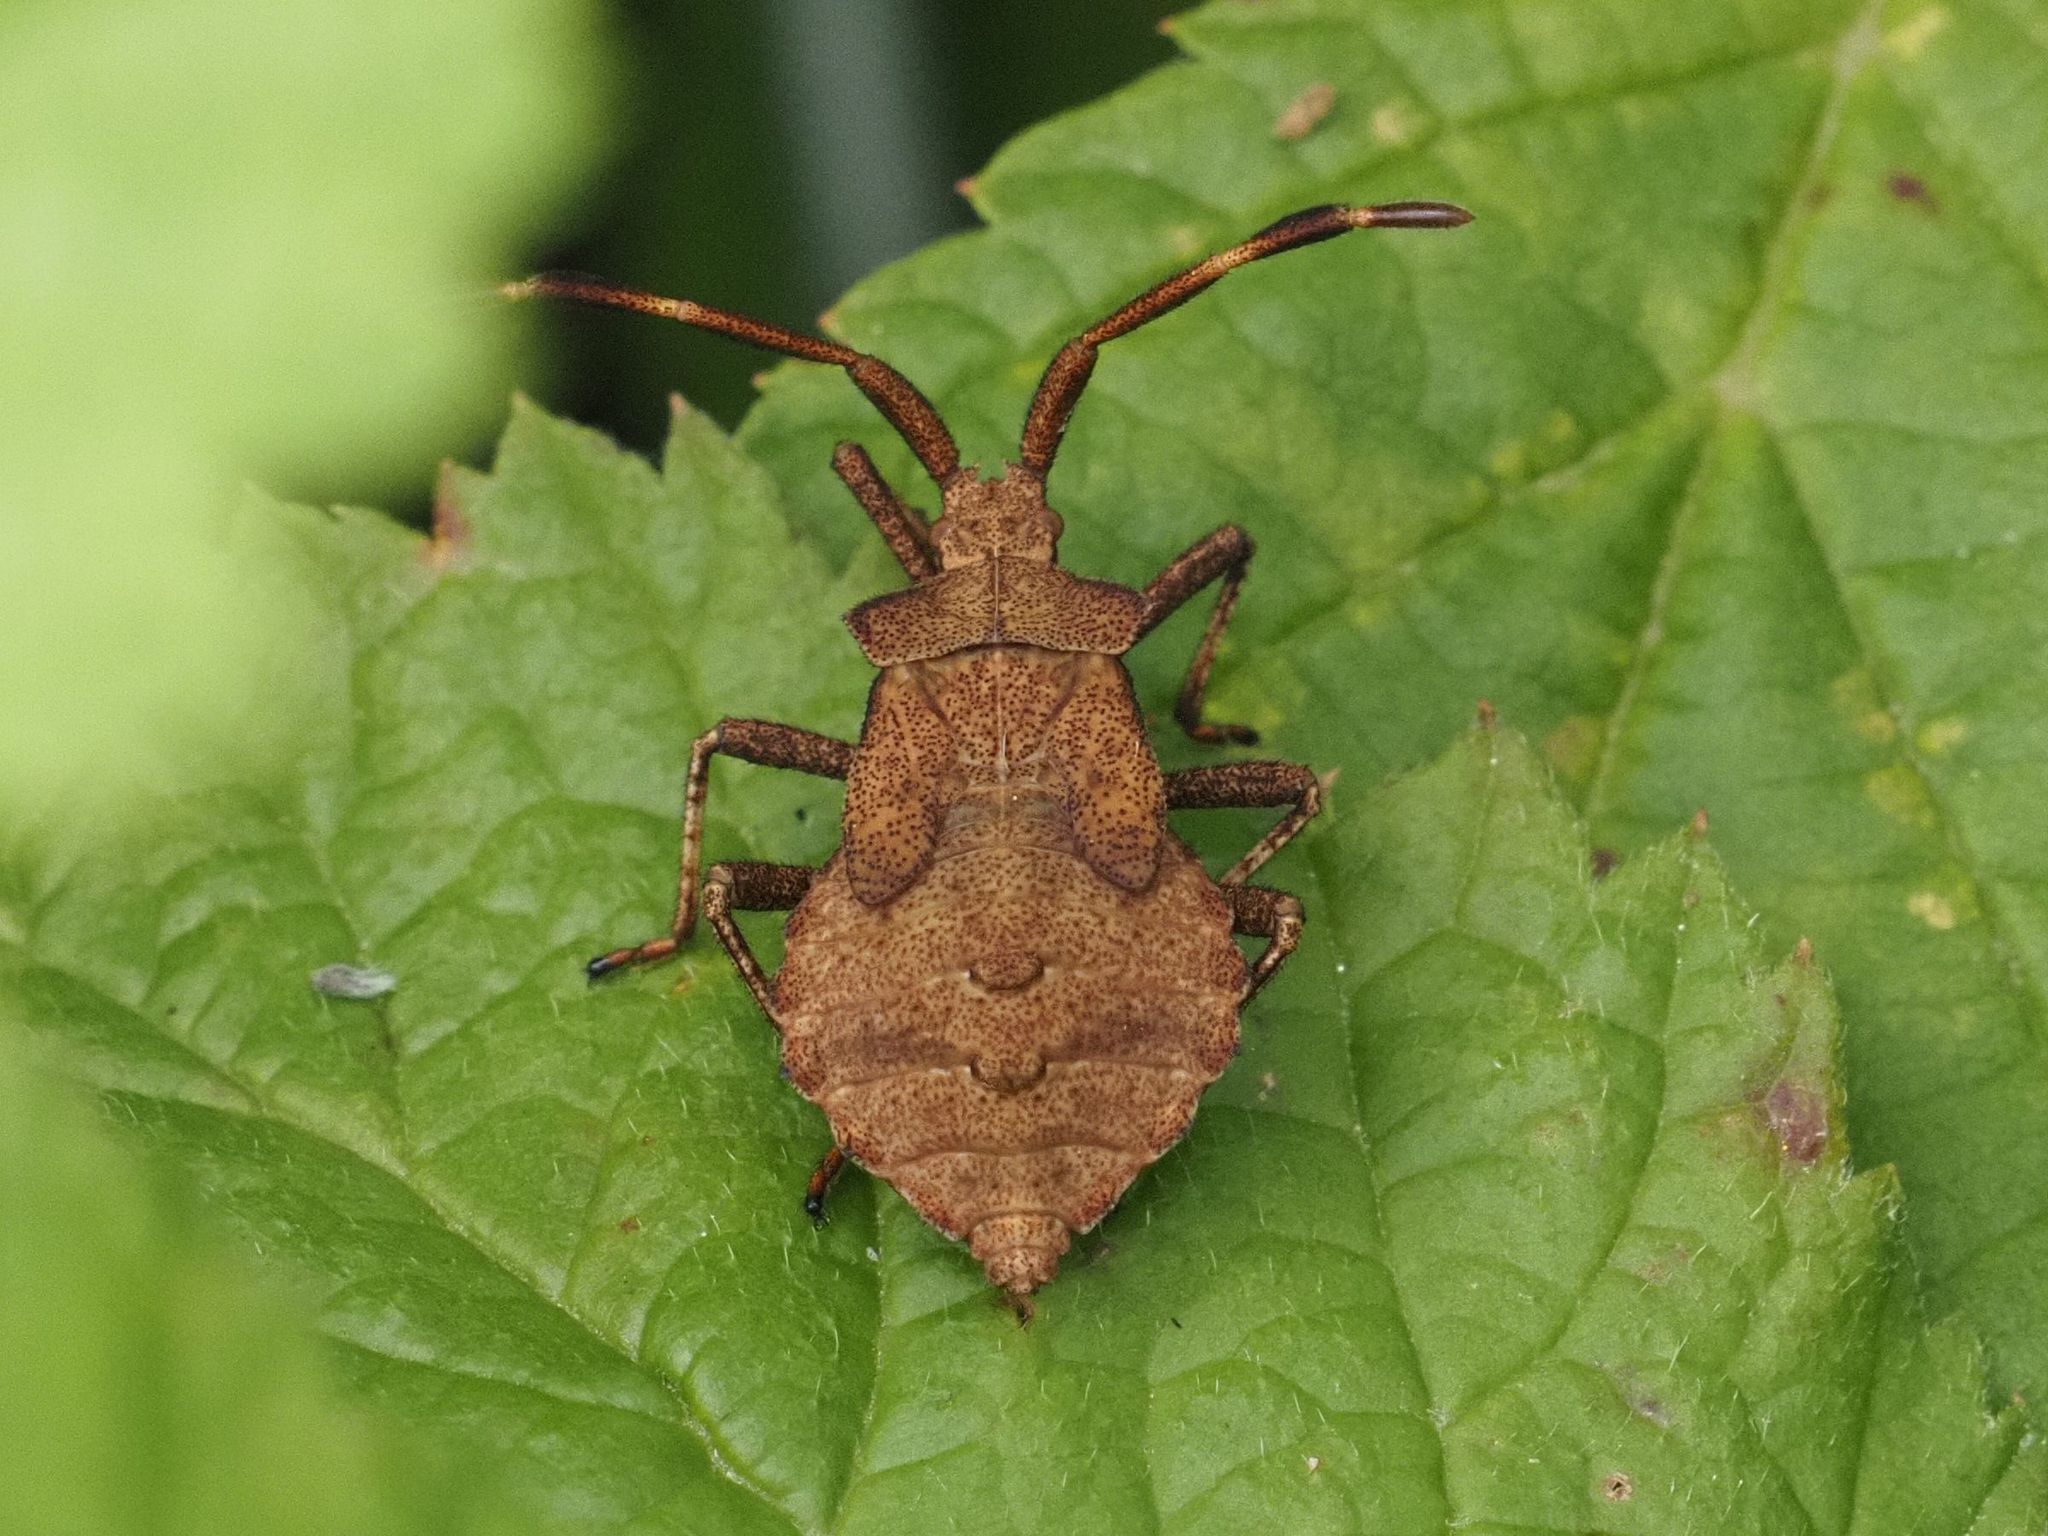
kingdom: Animalia
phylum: Arthropoda
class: Insecta
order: Hemiptera
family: Coreidae
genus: Coreus
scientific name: Coreus marginatus
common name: Dock bug
